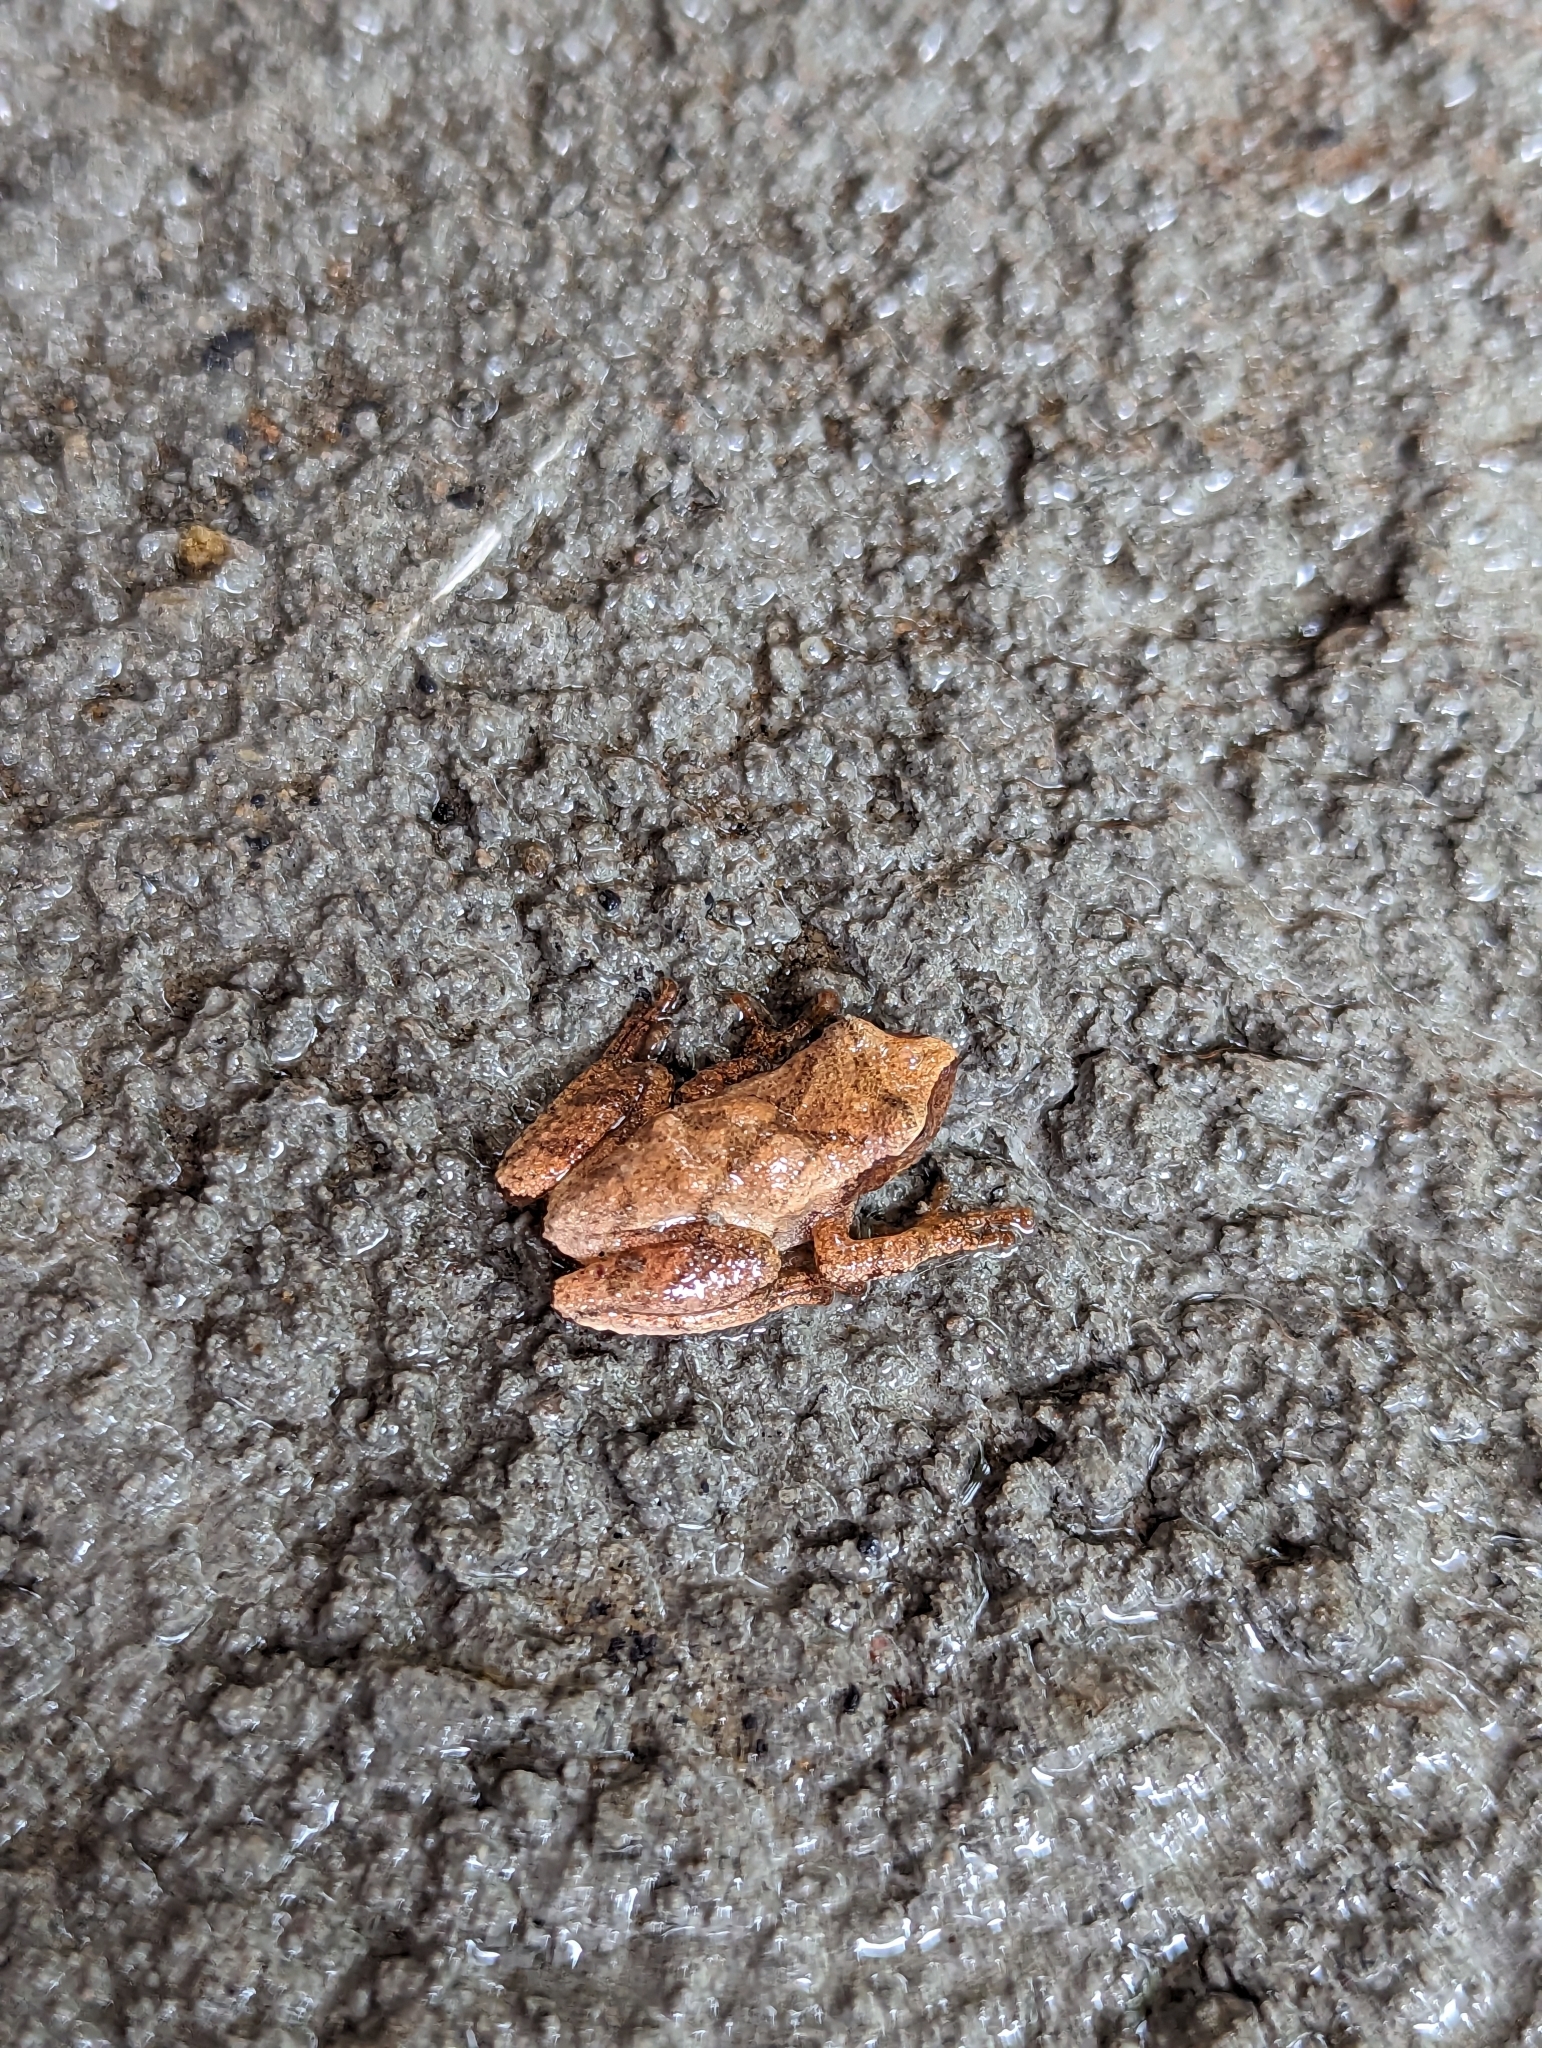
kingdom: Animalia
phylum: Chordata
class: Amphibia
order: Anura
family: Hylidae
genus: Pseudacris
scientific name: Pseudacris crucifer
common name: Spring peeper
